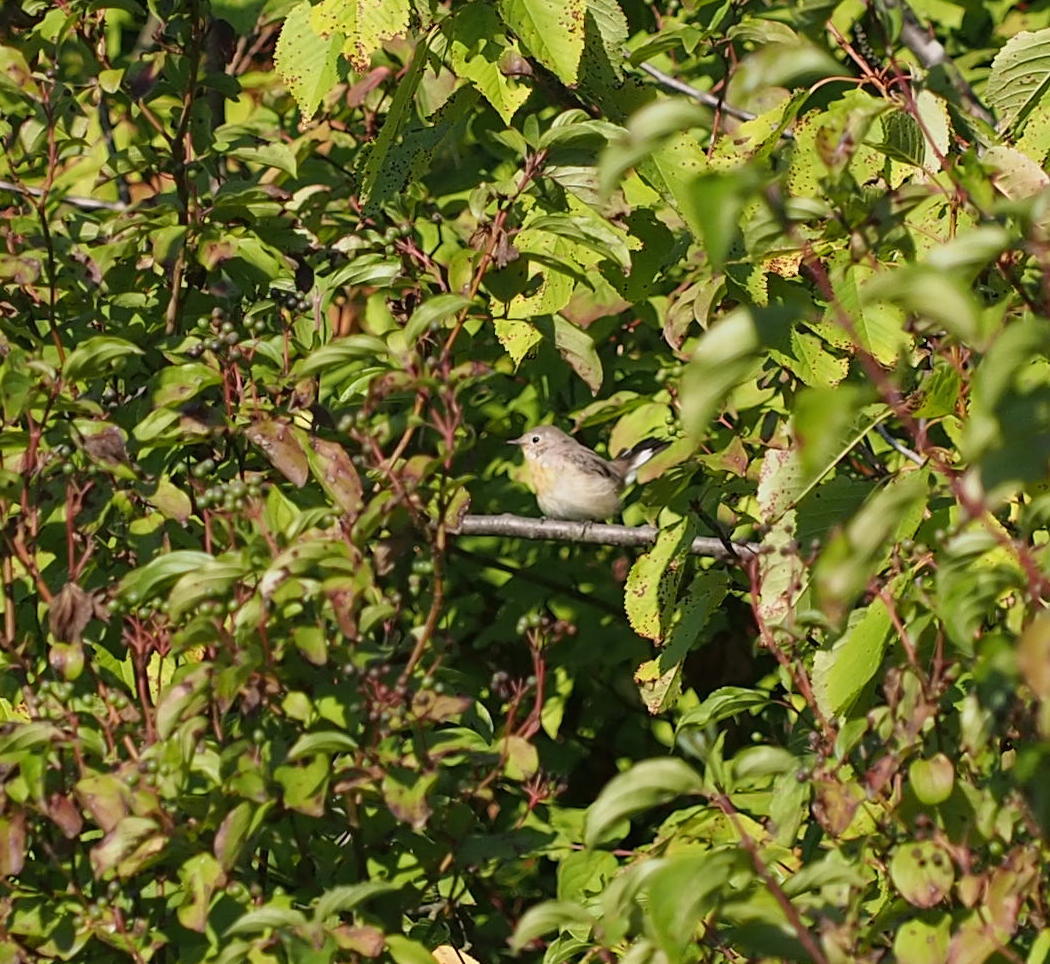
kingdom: Animalia
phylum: Chordata
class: Aves
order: Passeriformes
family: Muscicapidae
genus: Ficedula
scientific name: Ficedula parva
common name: Red-breasted flycatcher
